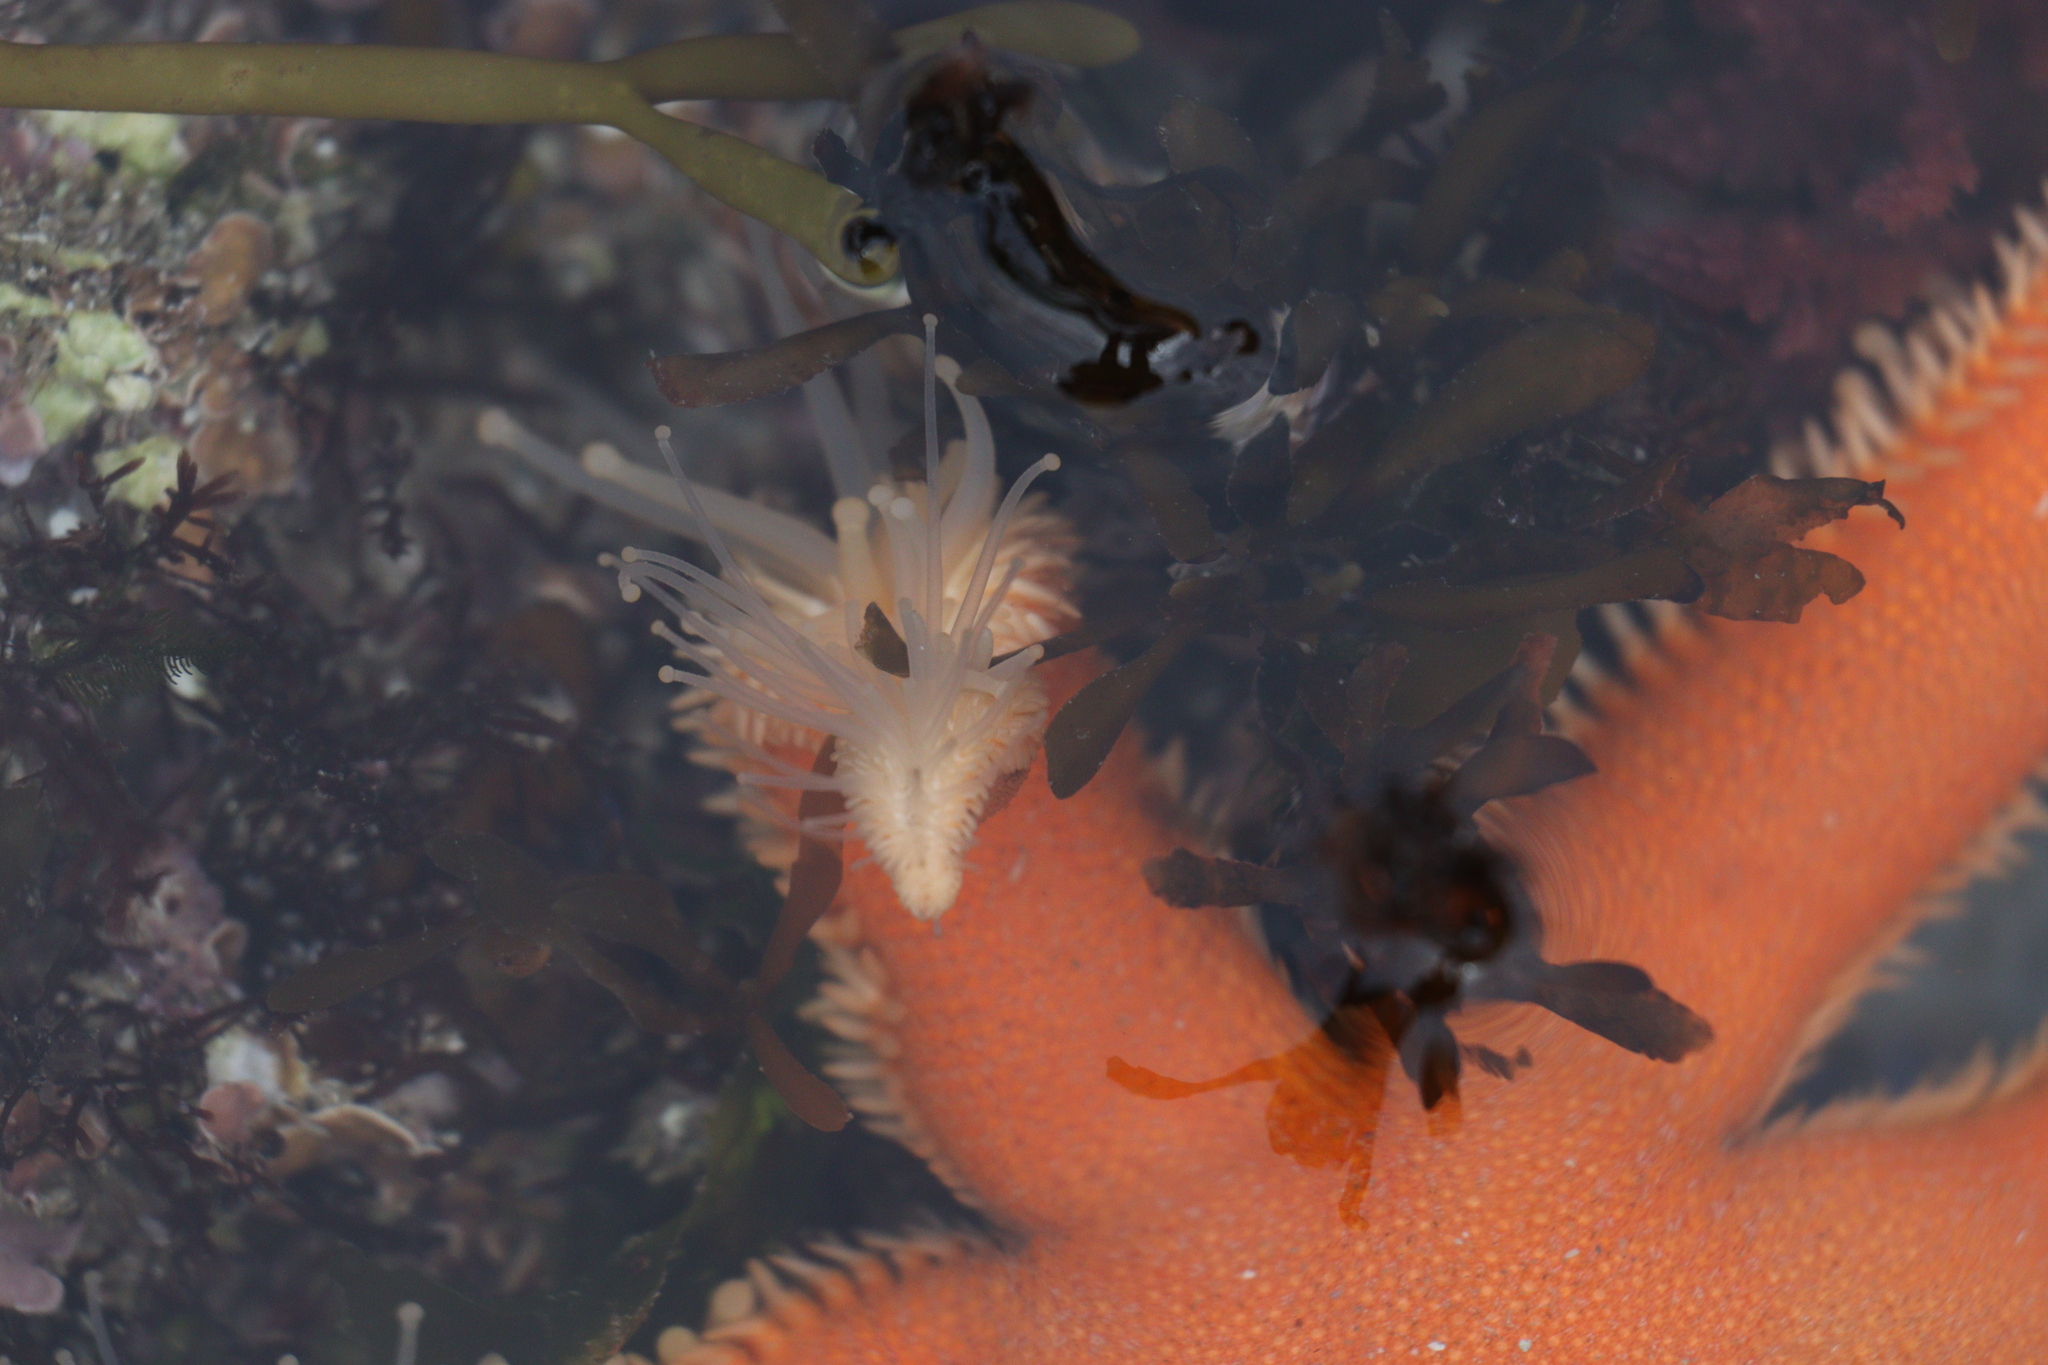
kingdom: Animalia
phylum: Echinodermata
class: Asteroidea
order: Paxillosida
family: Luidiidae
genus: Luidia
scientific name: Luidia ciliaris
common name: Seven-armed starfish
